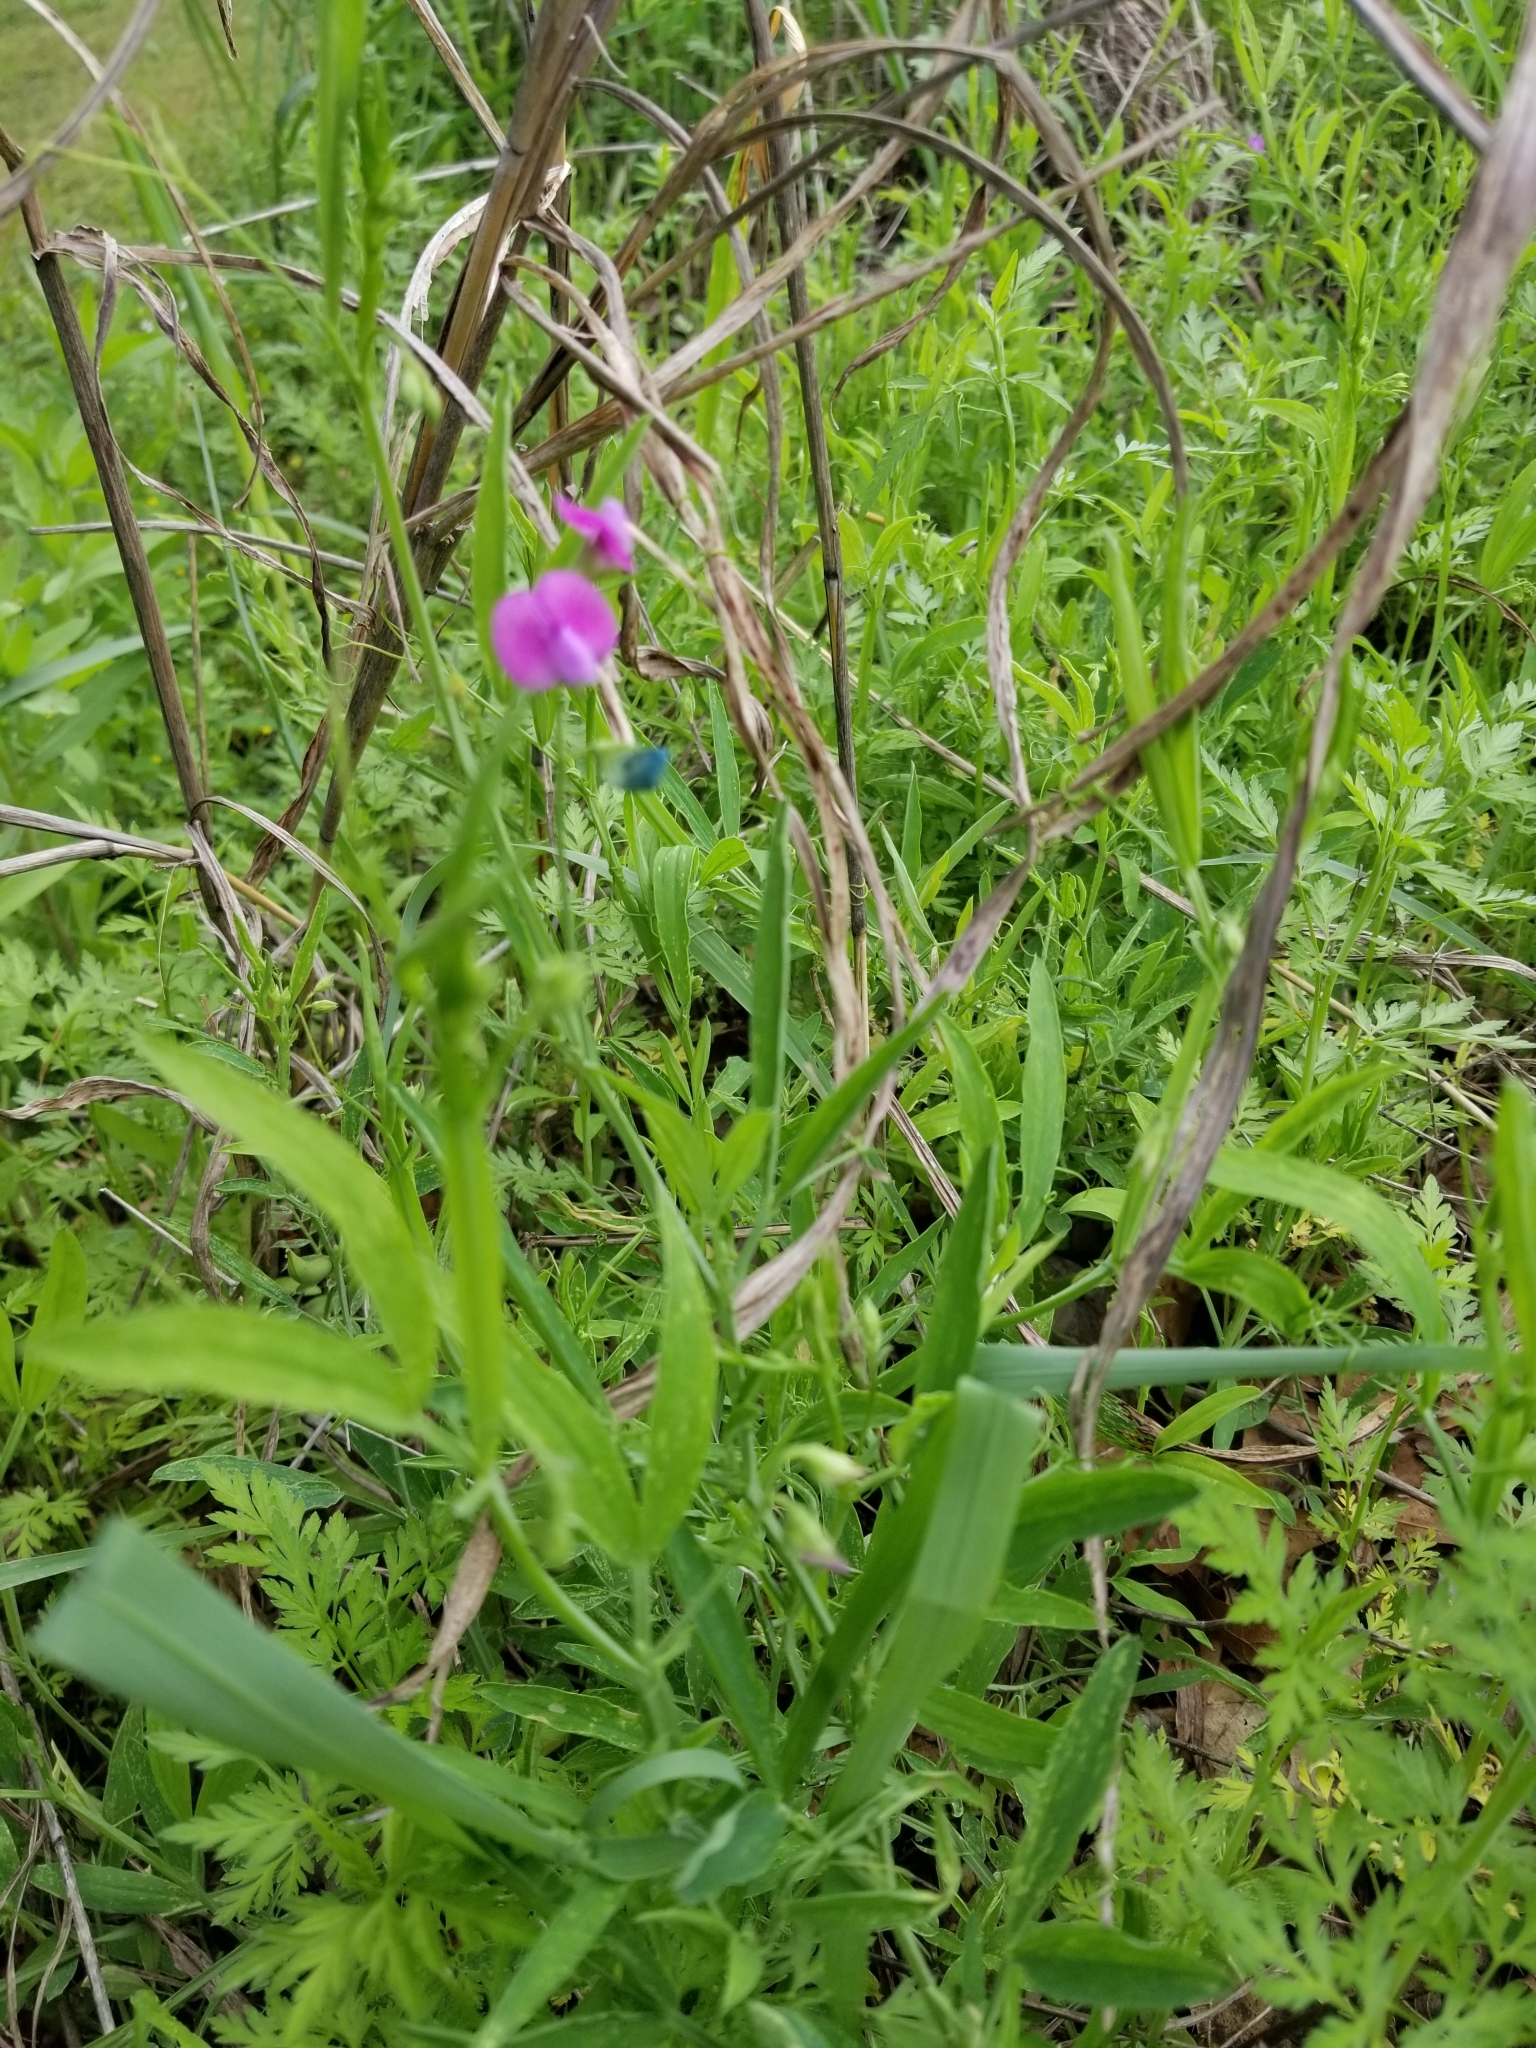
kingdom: Plantae
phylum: Tracheophyta
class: Magnoliopsida
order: Fabales
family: Fabaceae
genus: Lathyrus
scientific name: Lathyrus hirsutus
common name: Hairy vetchling
